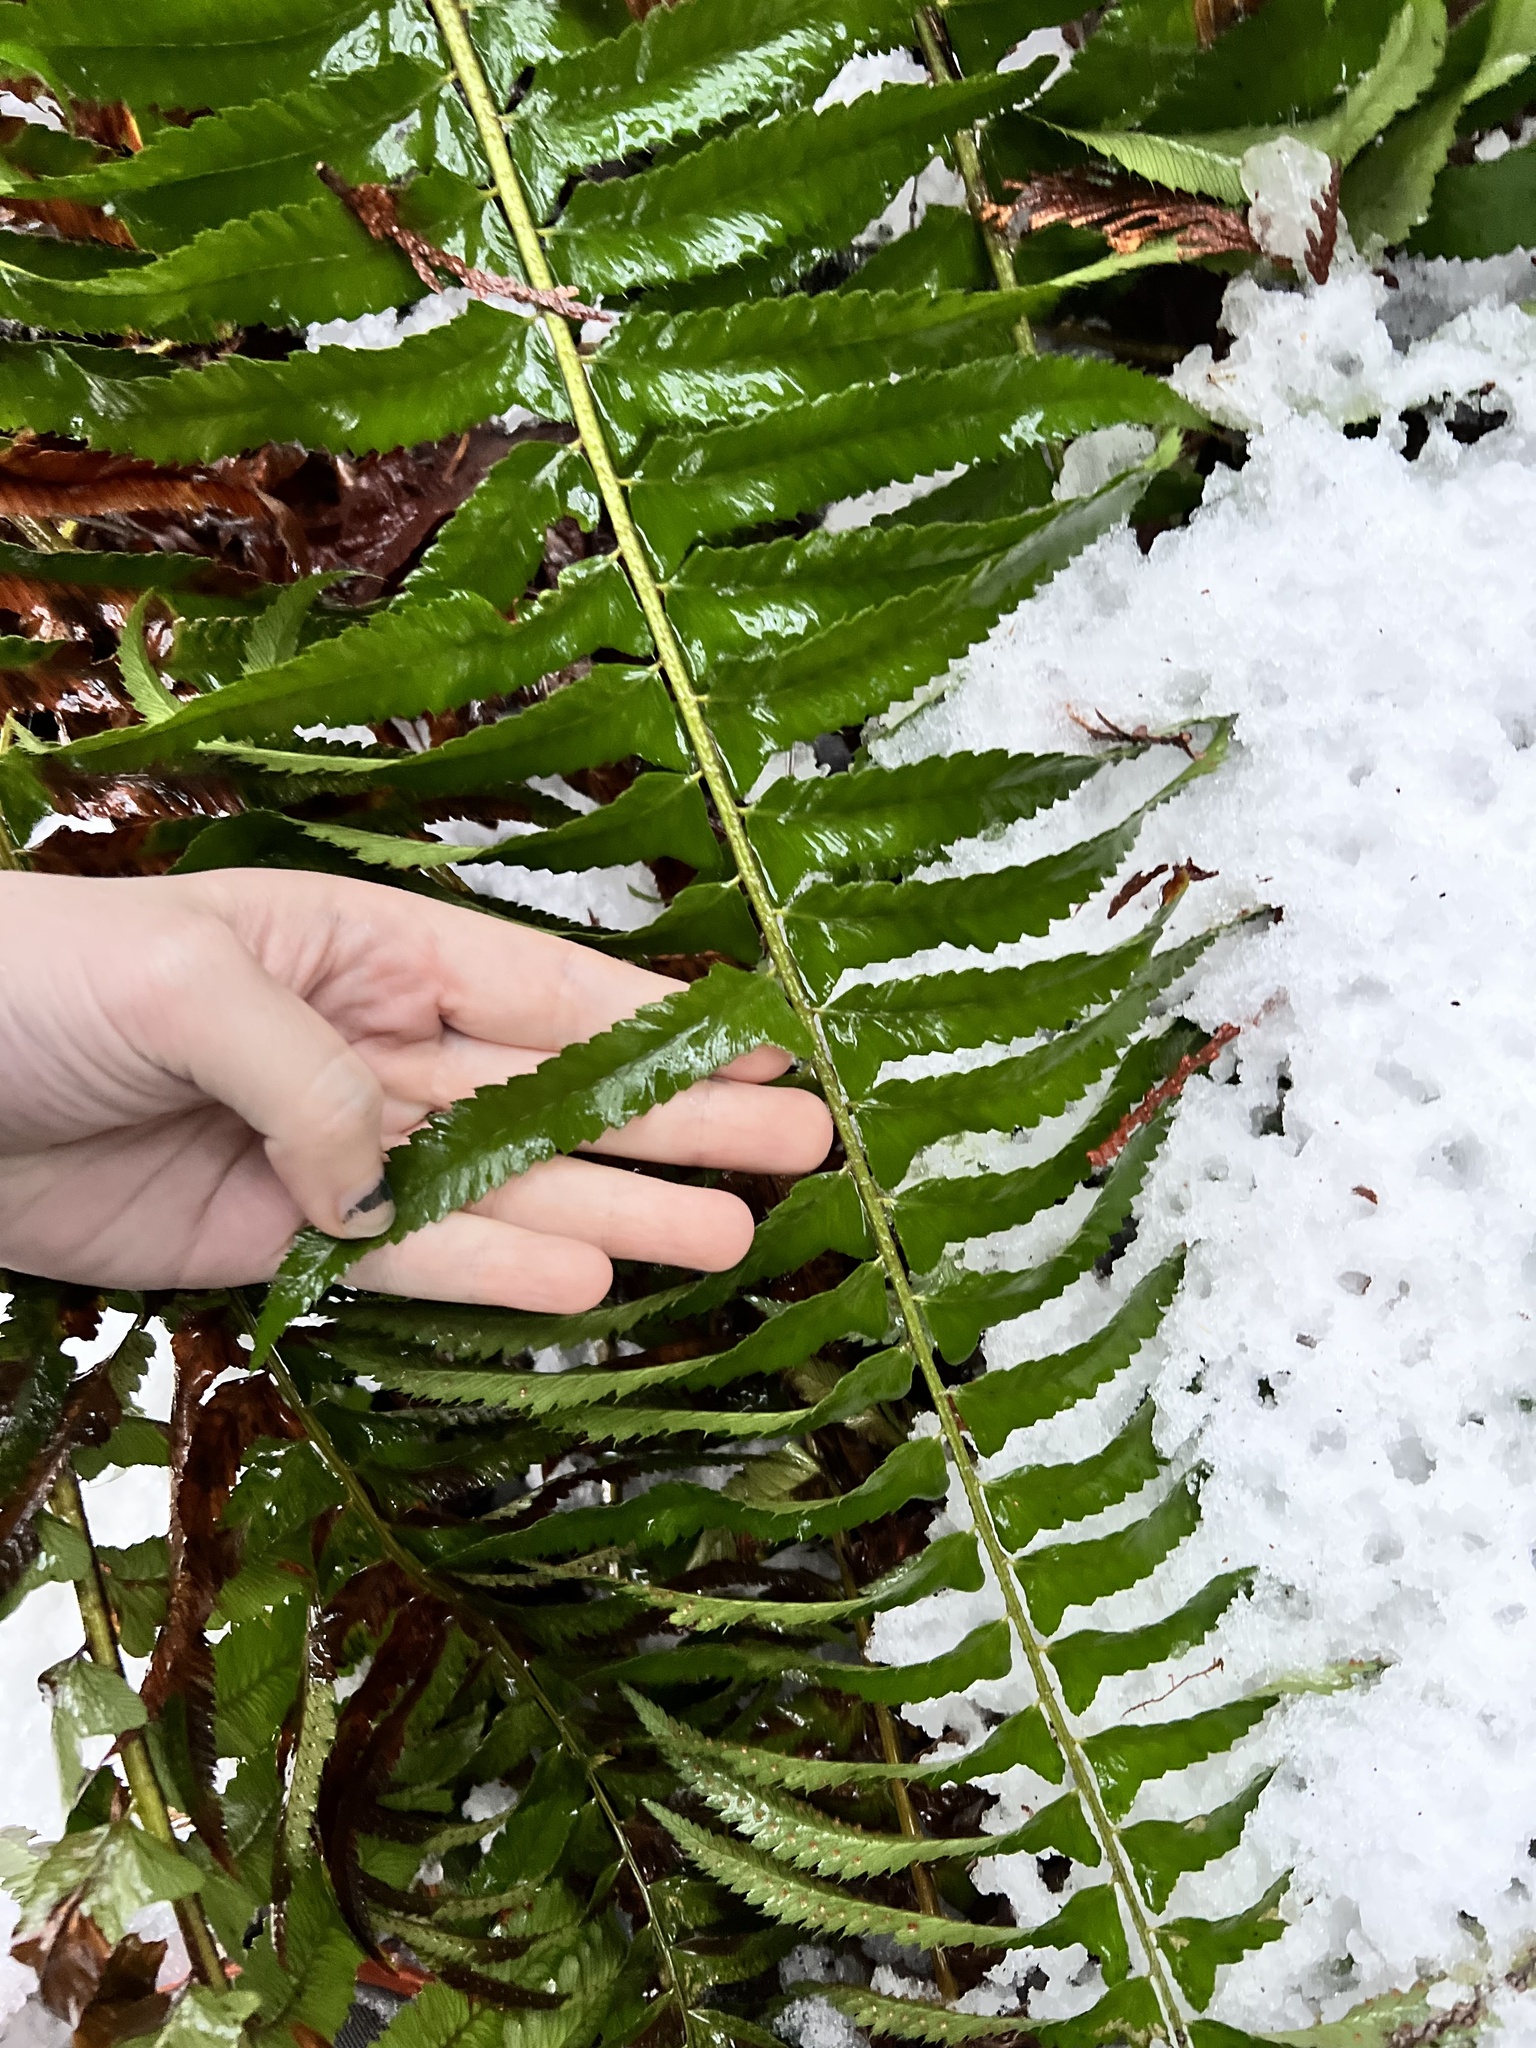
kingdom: Plantae
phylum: Tracheophyta
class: Polypodiopsida
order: Polypodiales
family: Dryopteridaceae
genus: Polystichum
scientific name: Polystichum munitum
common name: Western sword-fern
